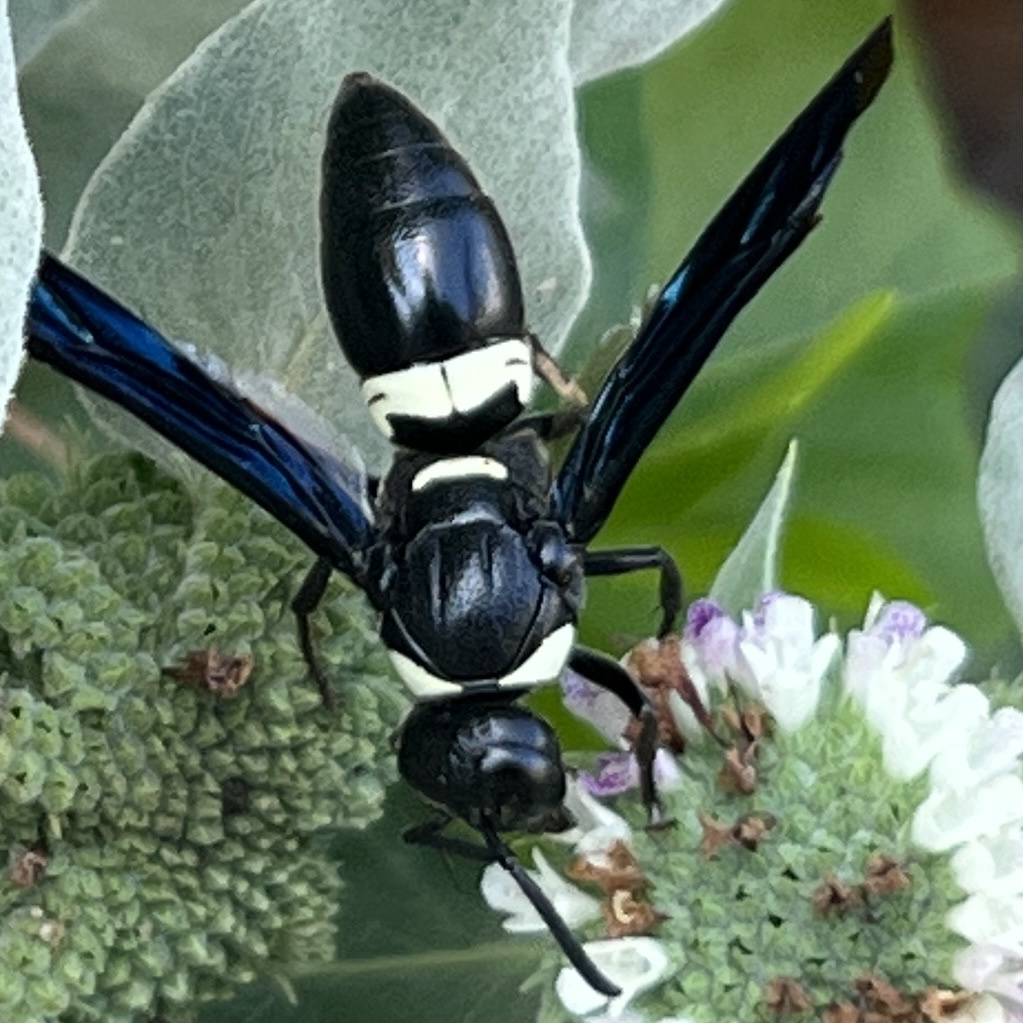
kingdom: Animalia
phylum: Arthropoda
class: Insecta
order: Hymenoptera
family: Eumenidae
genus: Monobia
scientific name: Monobia quadridens
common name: Four-toothed mason wasp
